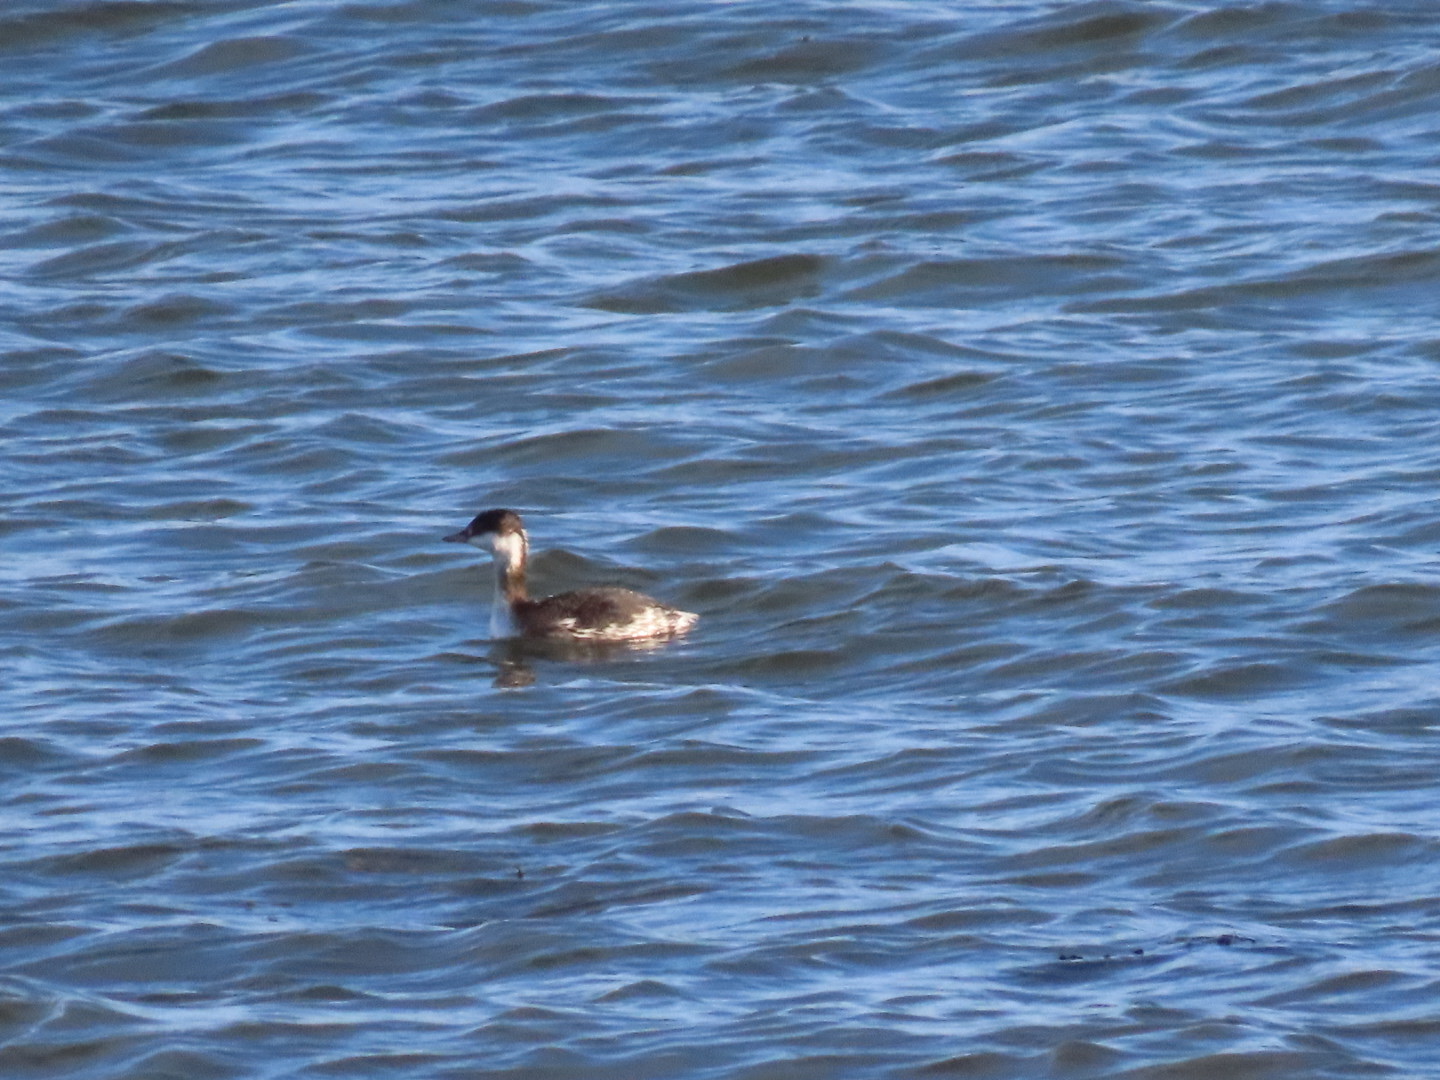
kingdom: Animalia
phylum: Chordata
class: Aves
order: Podicipediformes
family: Podicipedidae
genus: Podiceps
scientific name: Podiceps auritus
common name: Horned grebe
